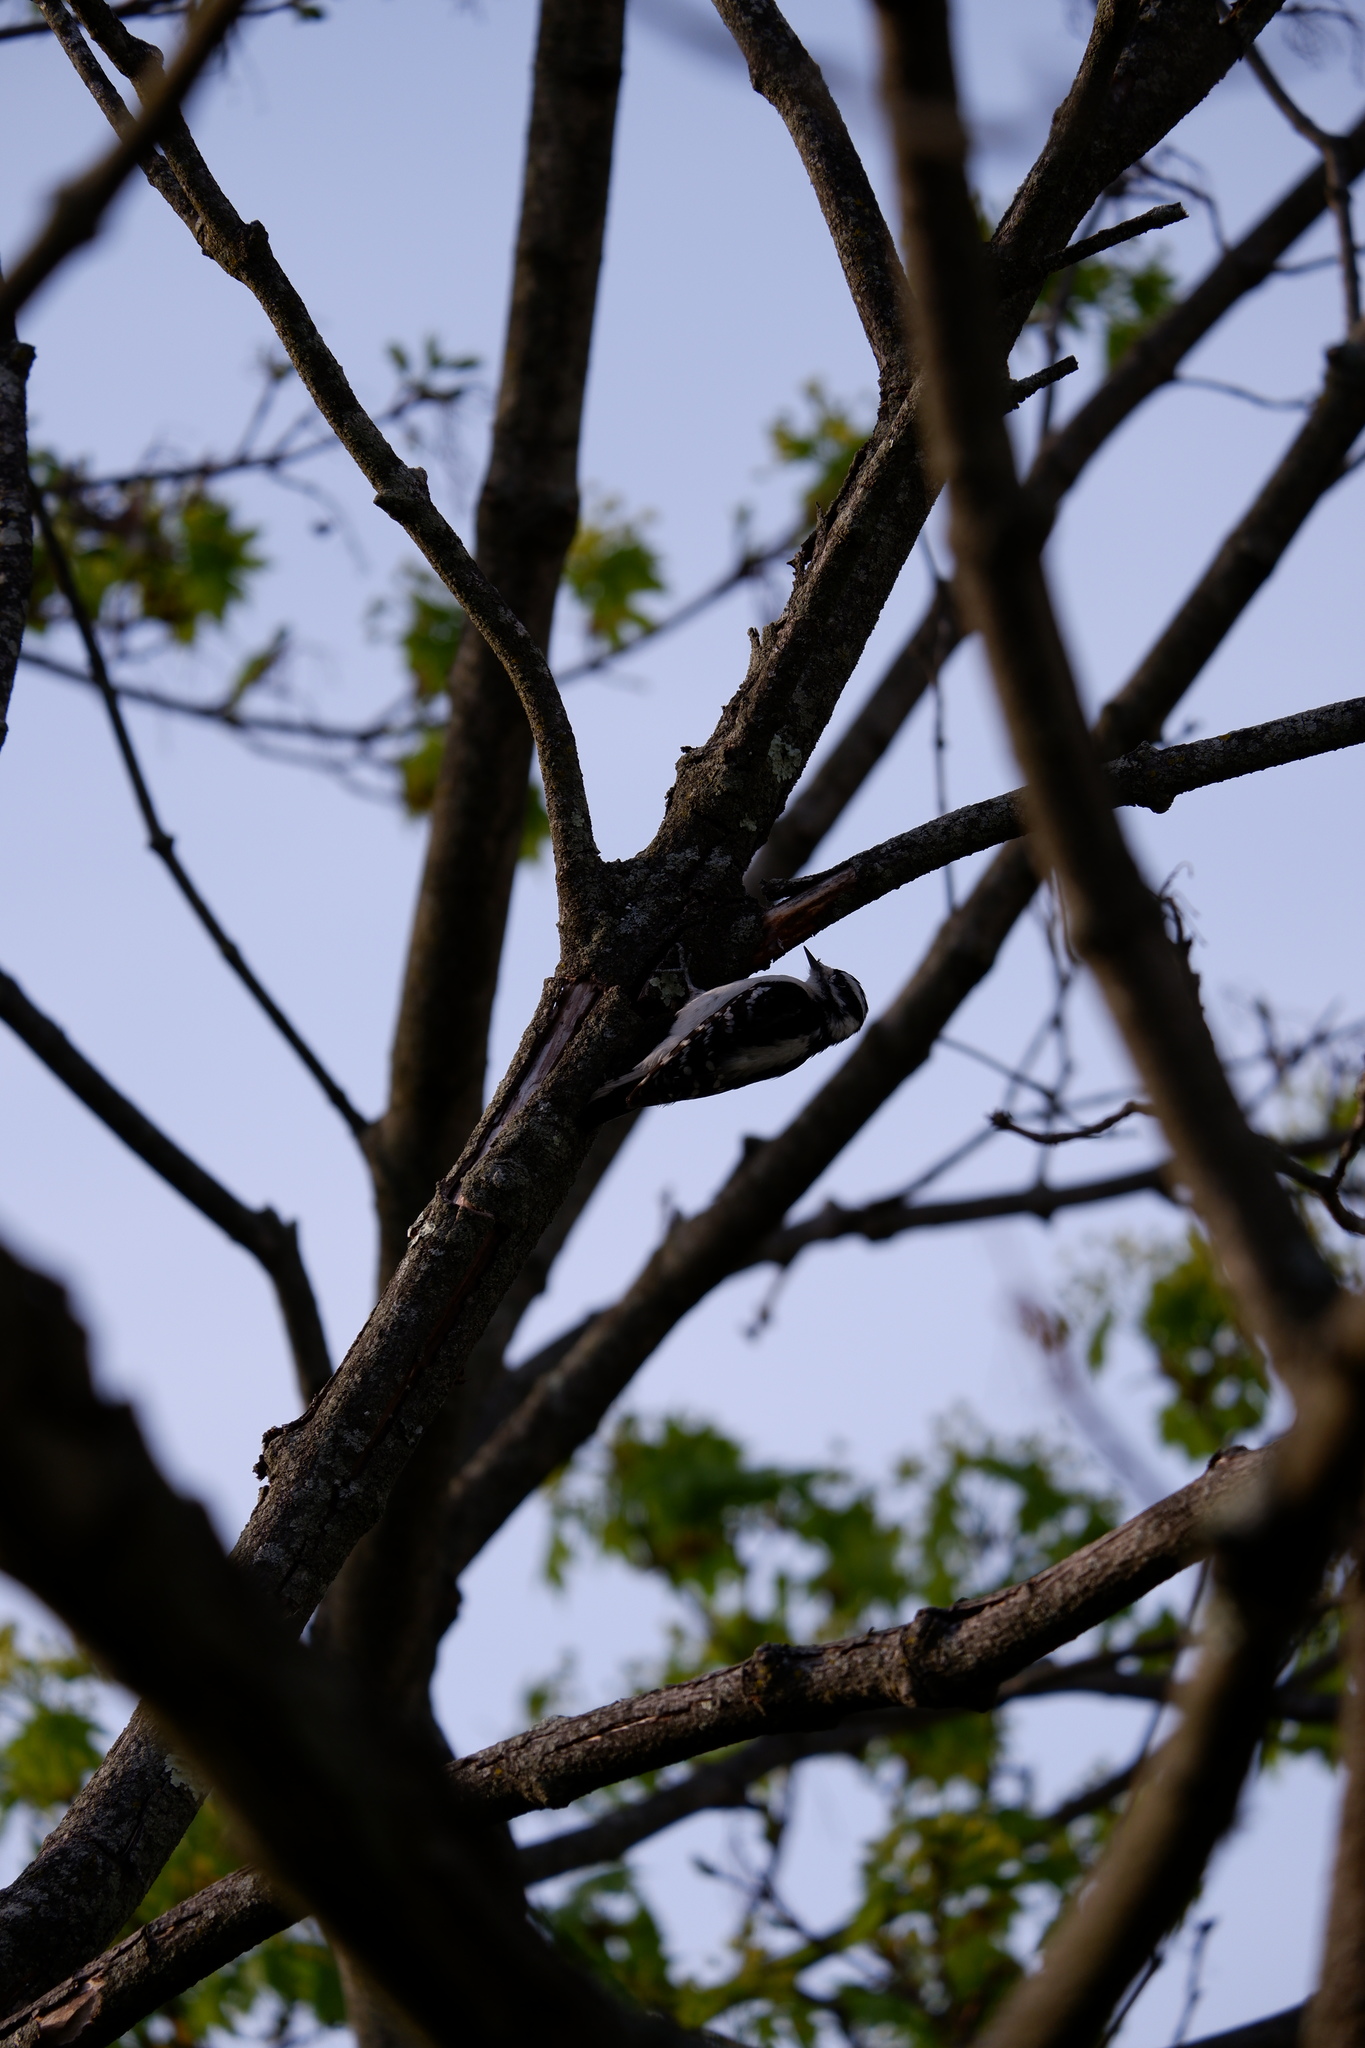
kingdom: Animalia
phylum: Chordata
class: Aves
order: Piciformes
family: Picidae
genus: Dryobates
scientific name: Dryobates pubescens
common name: Downy woodpecker
